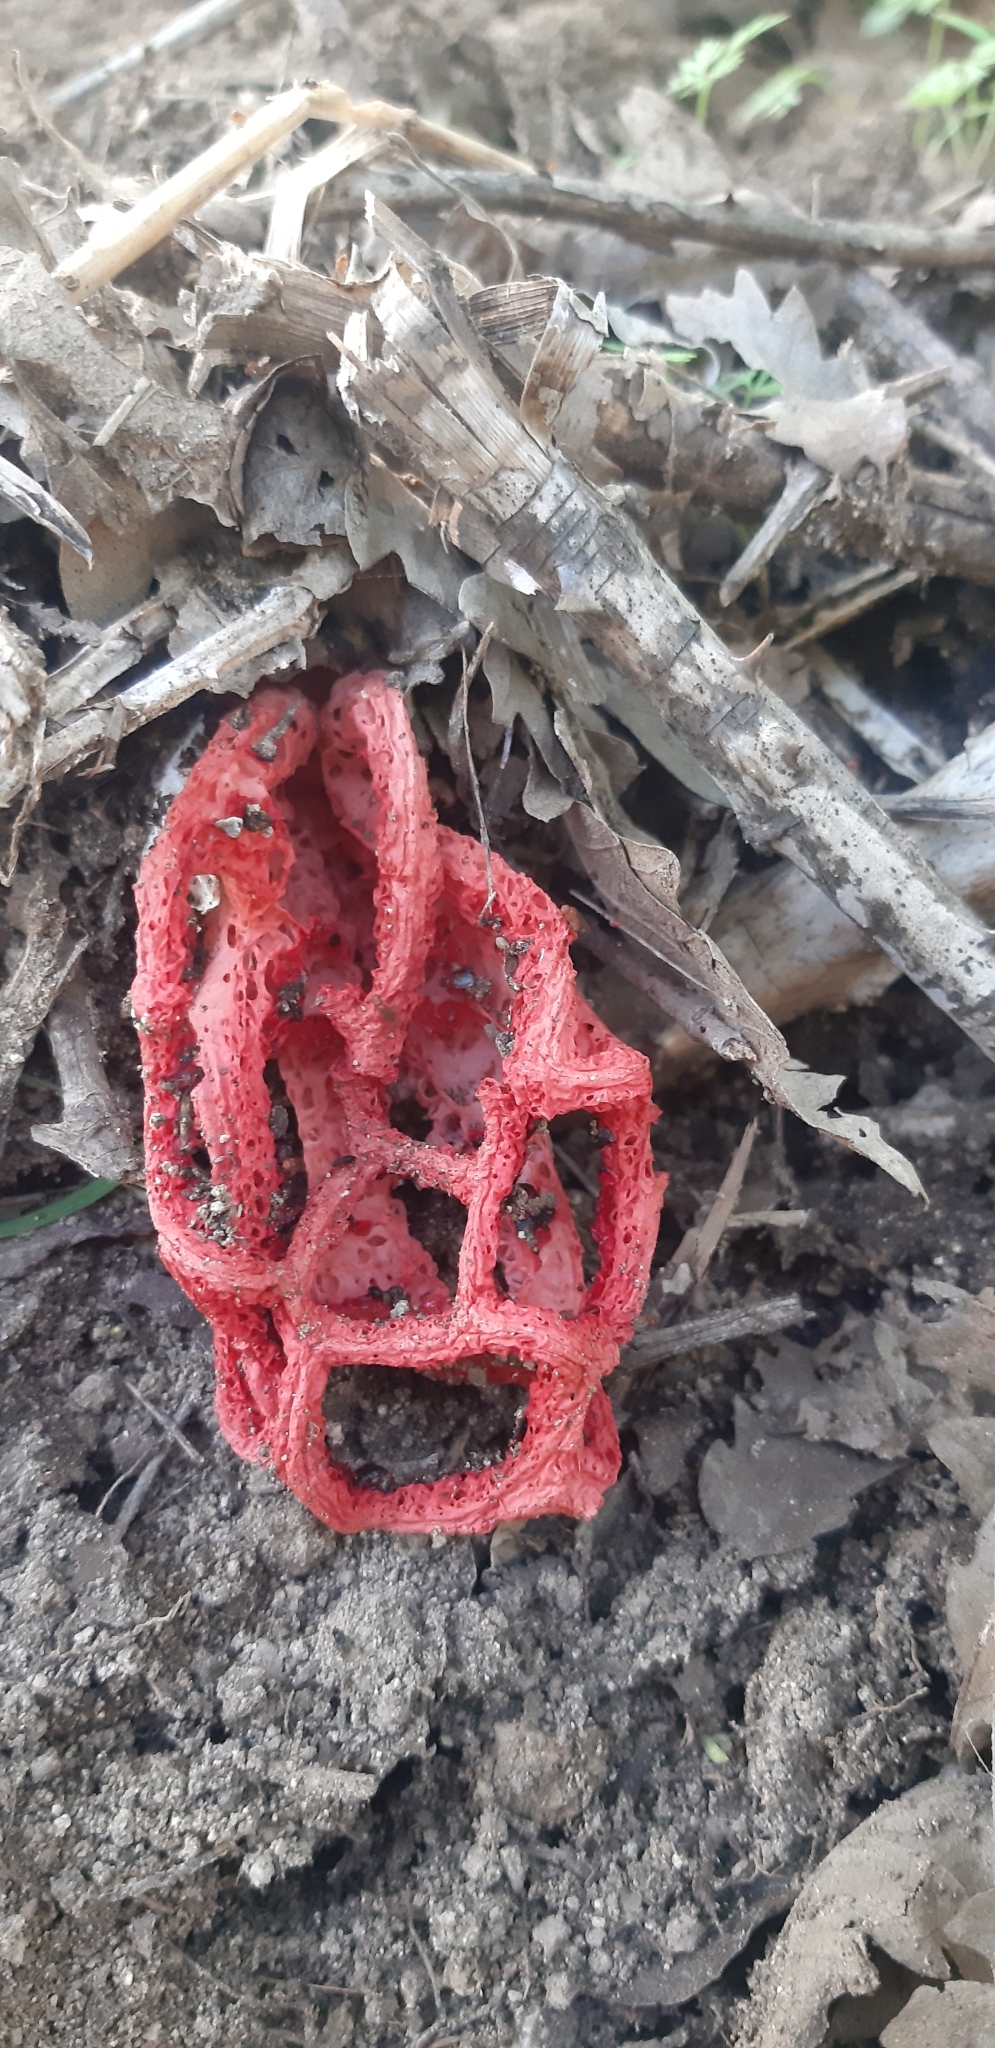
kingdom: Fungi
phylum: Basidiomycota
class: Agaricomycetes
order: Phallales
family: Phallaceae
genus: Clathrus
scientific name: Clathrus ruber
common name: Red cage
